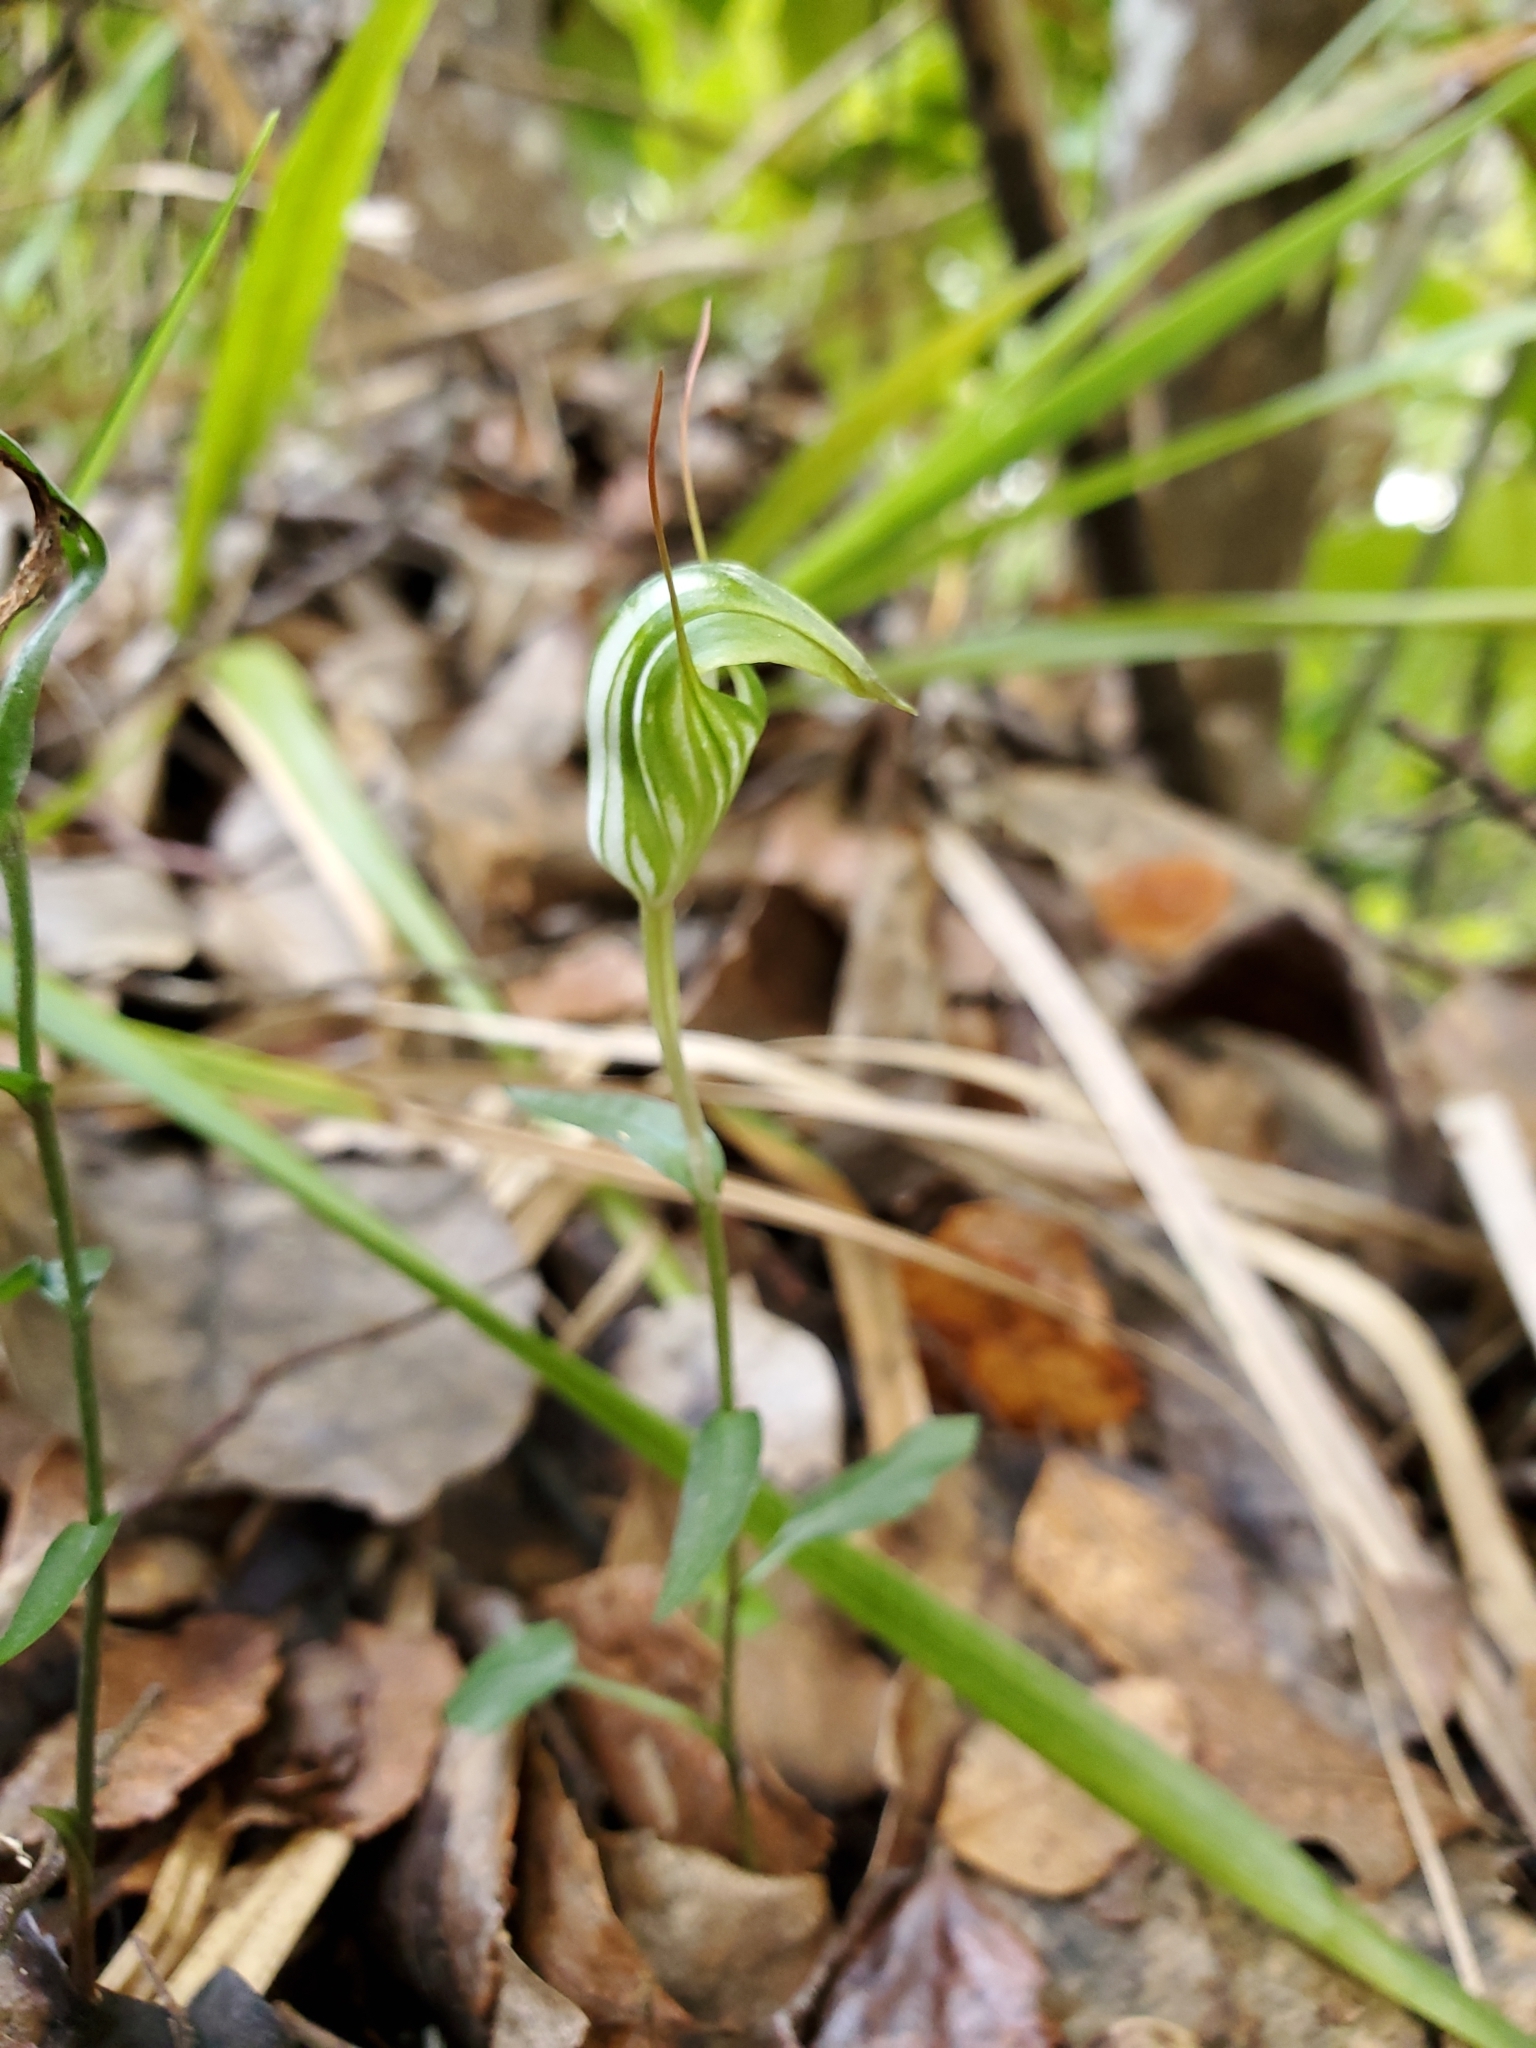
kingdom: Plantae
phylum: Tracheophyta
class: Liliopsida
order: Asparagales
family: Orchidaceae
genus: Pterostylis
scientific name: Pterostylis alobula
